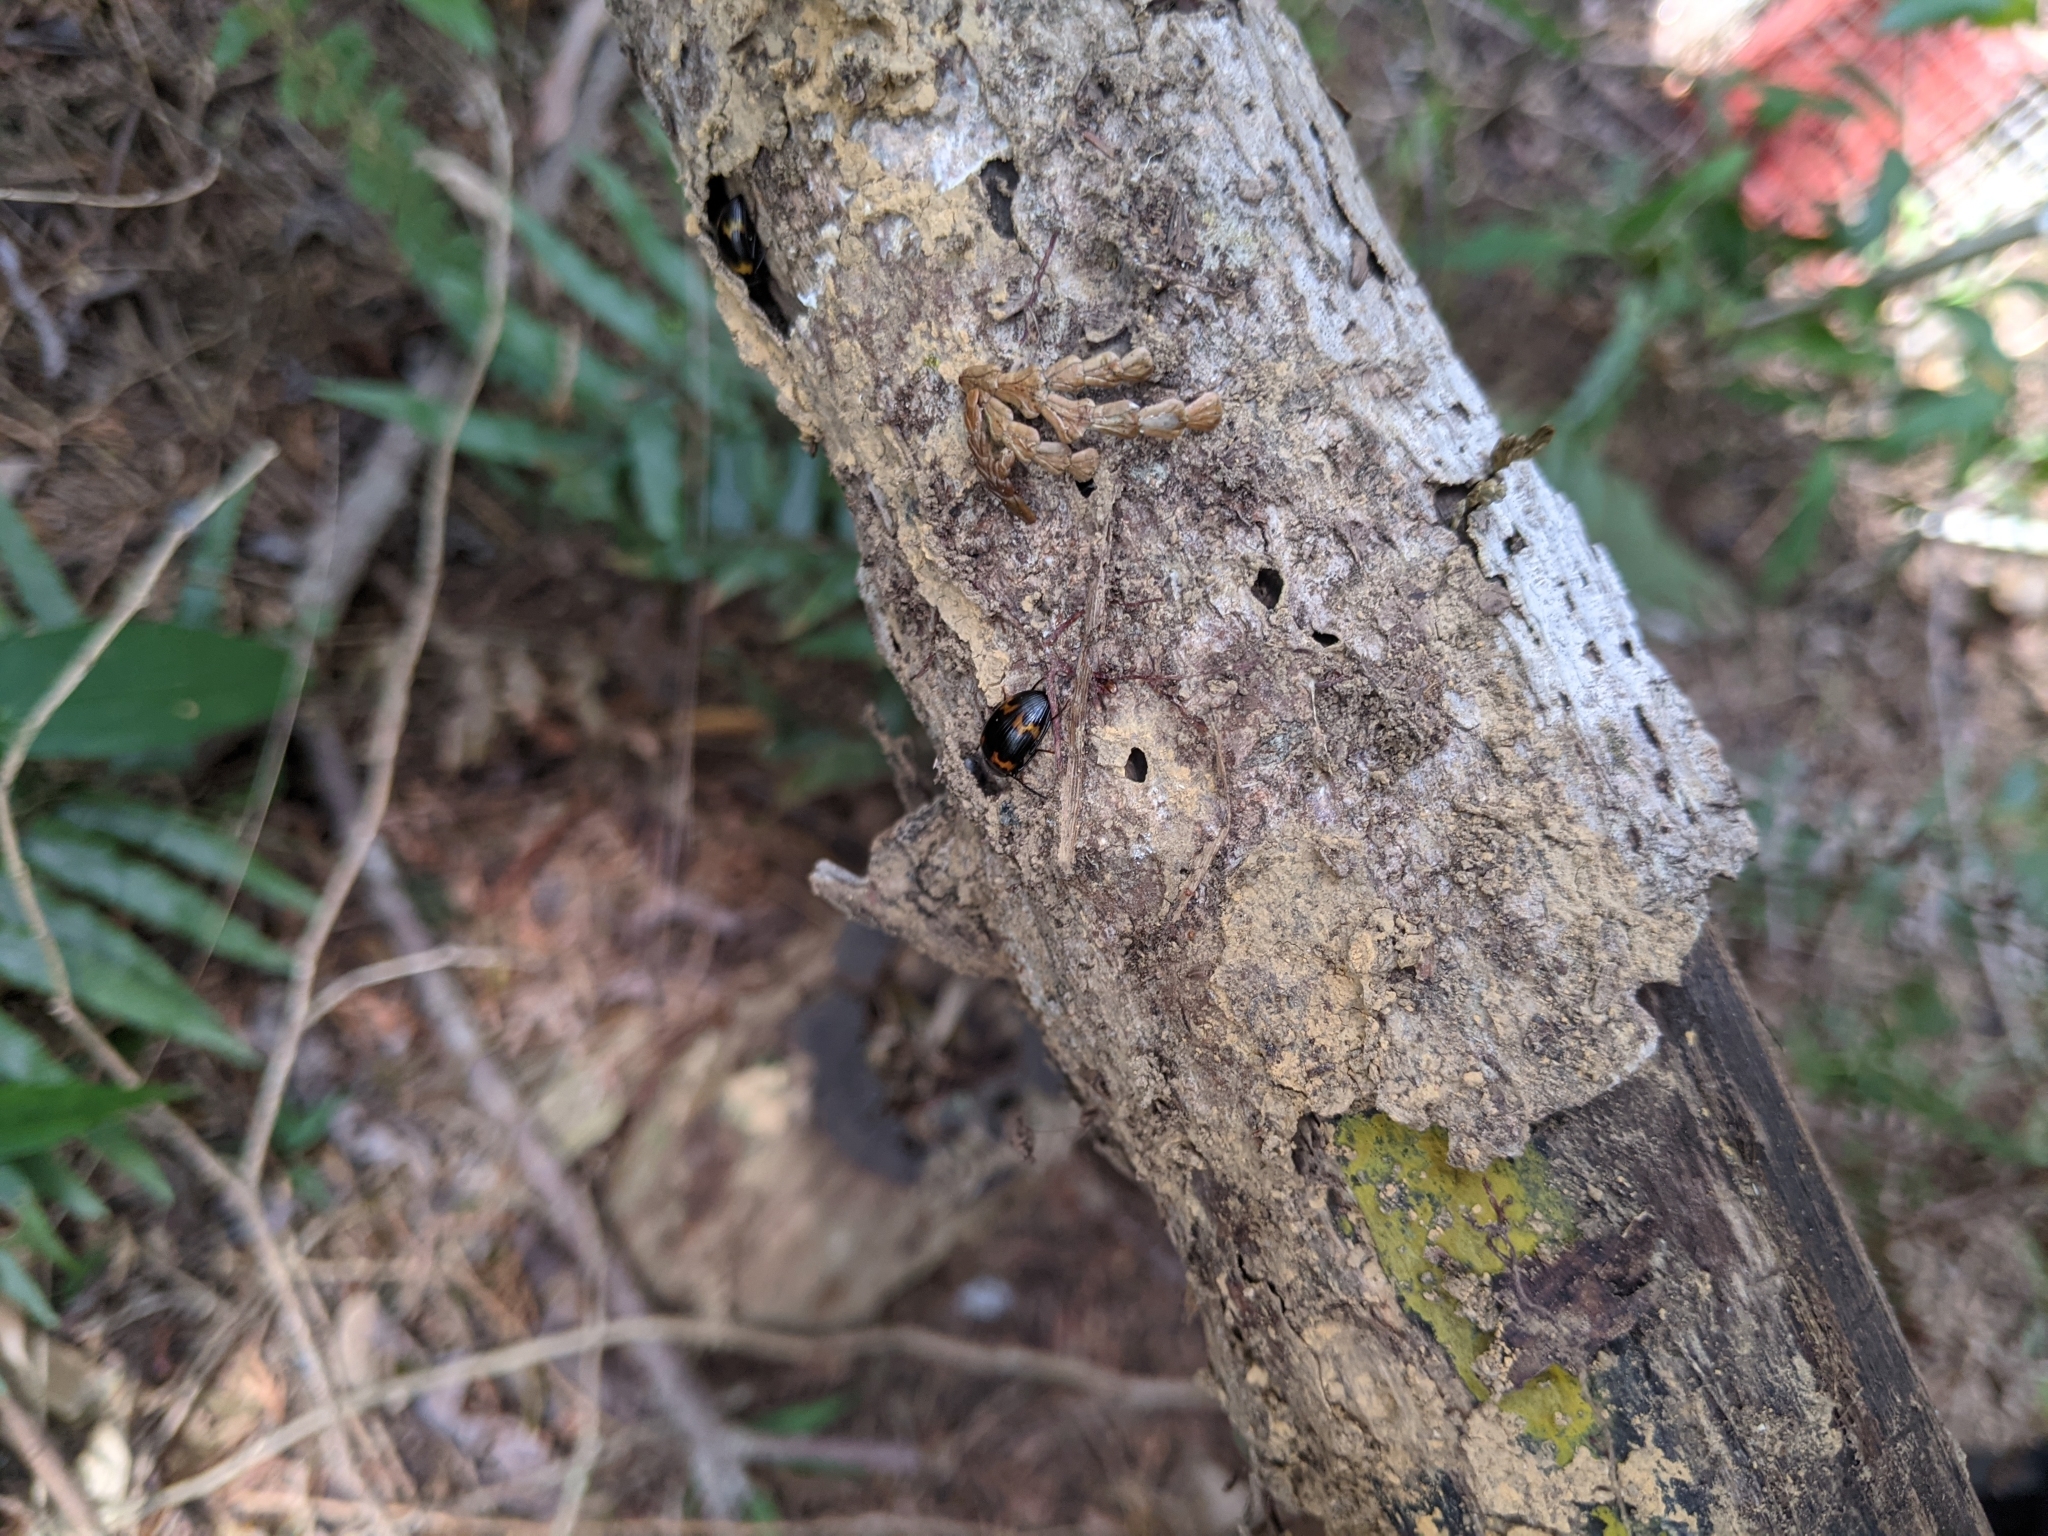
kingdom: Animalia
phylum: Arthropoda
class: Insecta
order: Coleoptera
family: Tenebrionidae
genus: Amarygmus
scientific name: Amarygmus pilipes
